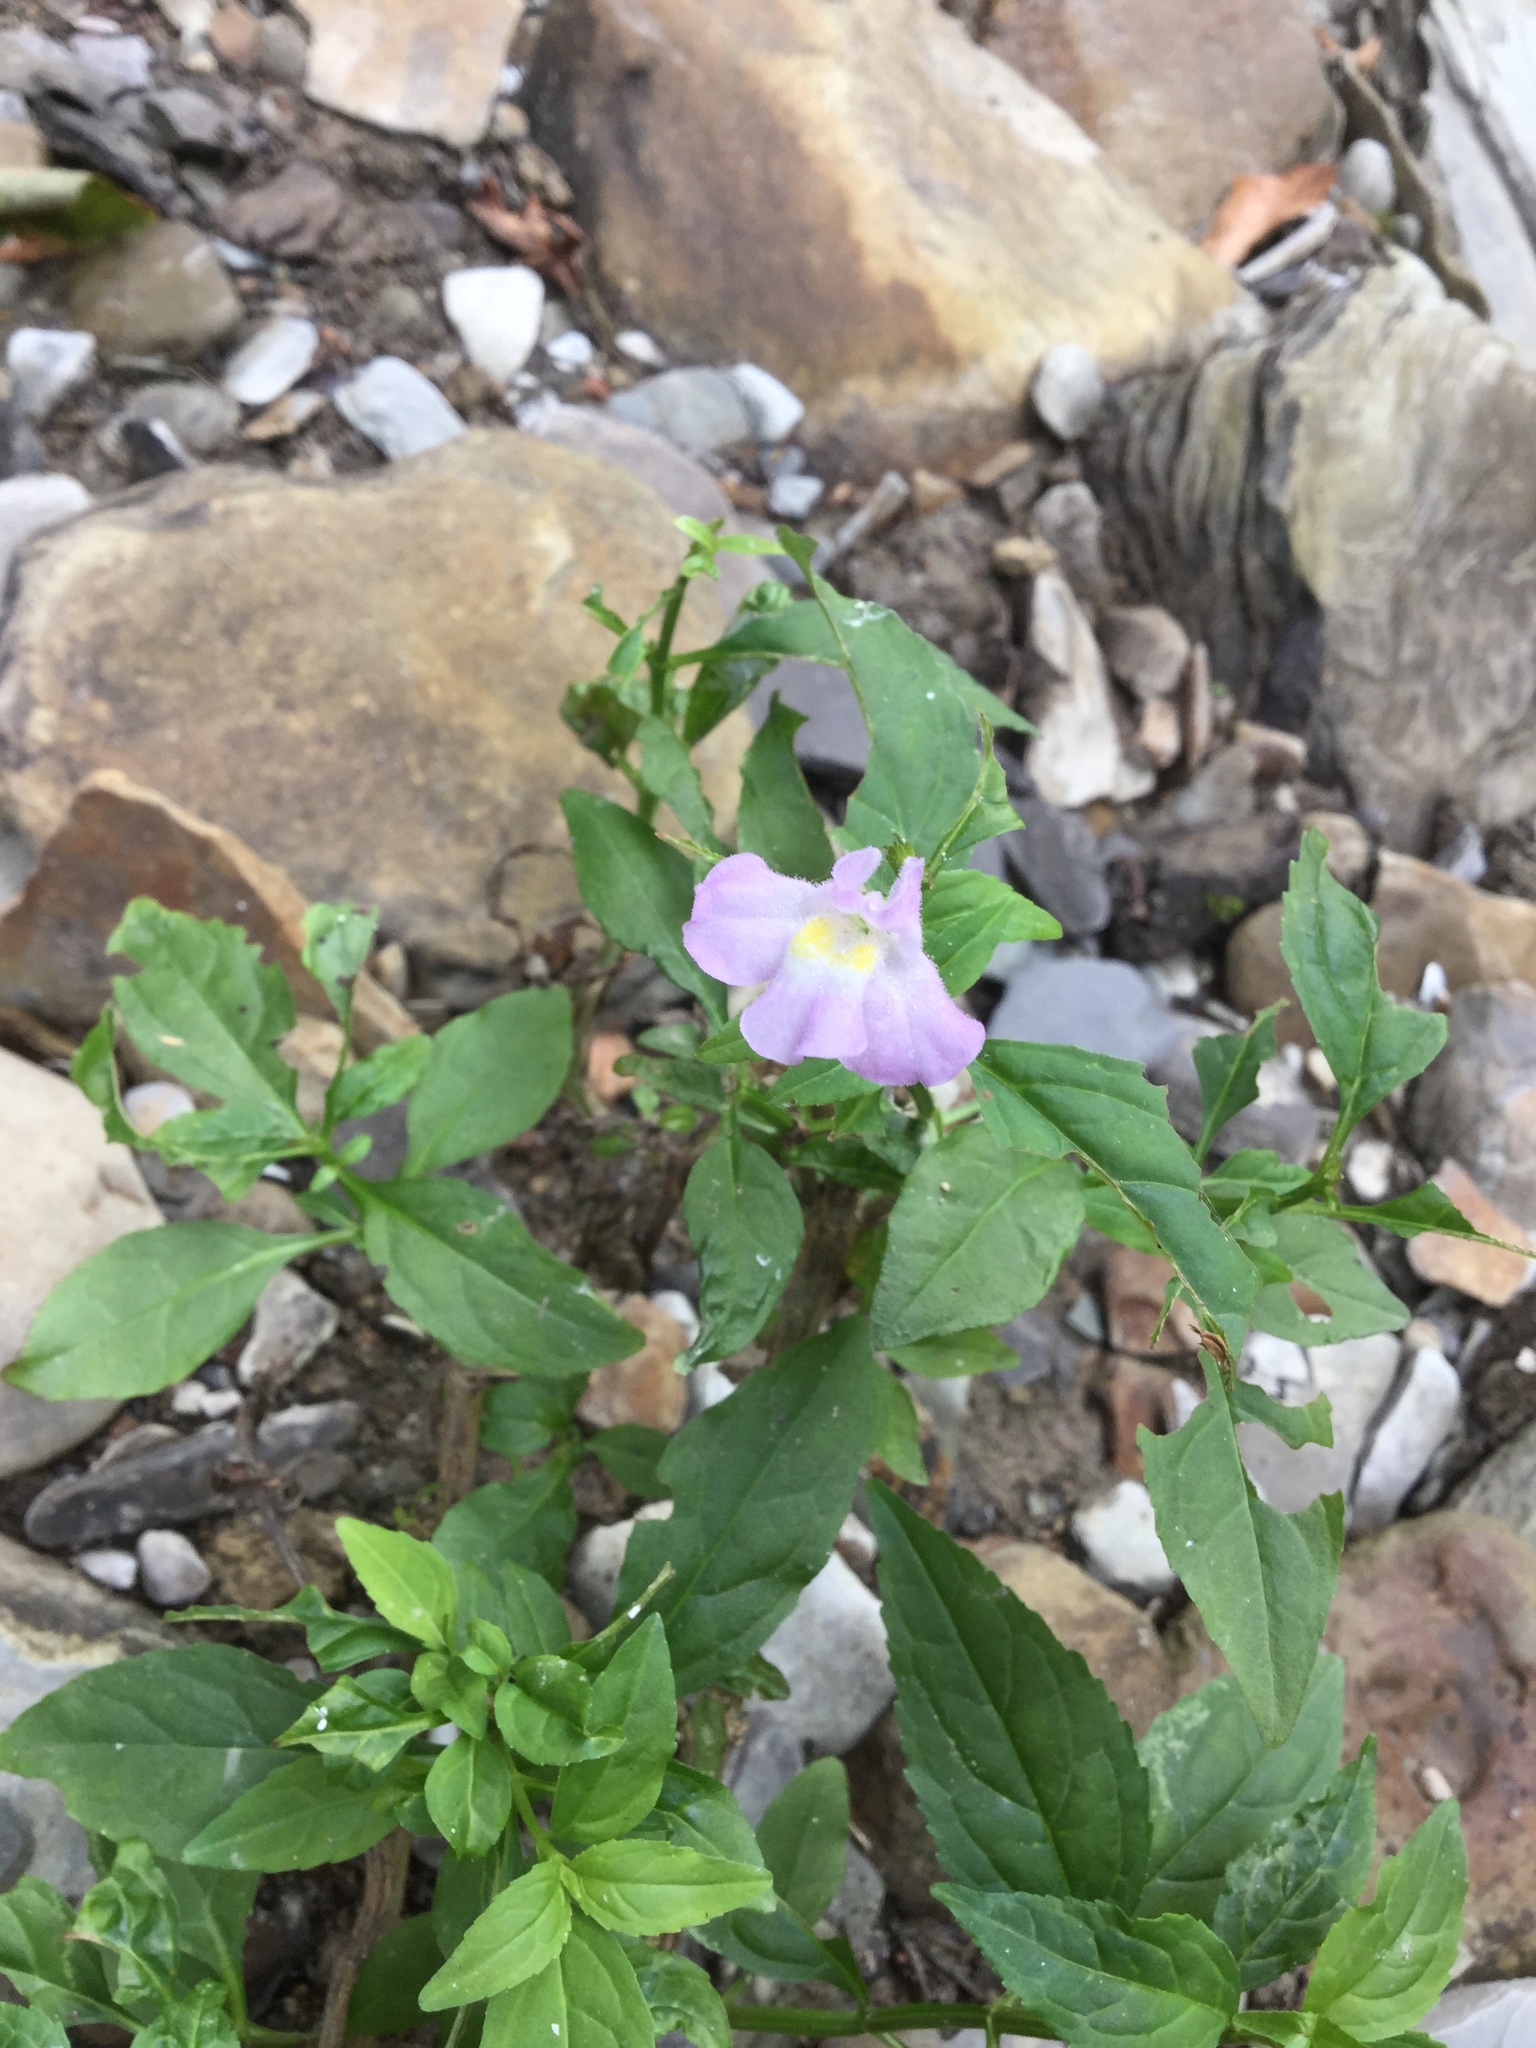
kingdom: Plantae
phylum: Tracheophyta
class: Magnoliopsida
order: Lamiales
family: Phrymaceae
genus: Mimulus
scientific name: Mimulus alatus
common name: Sharp-wing monkey-flower
